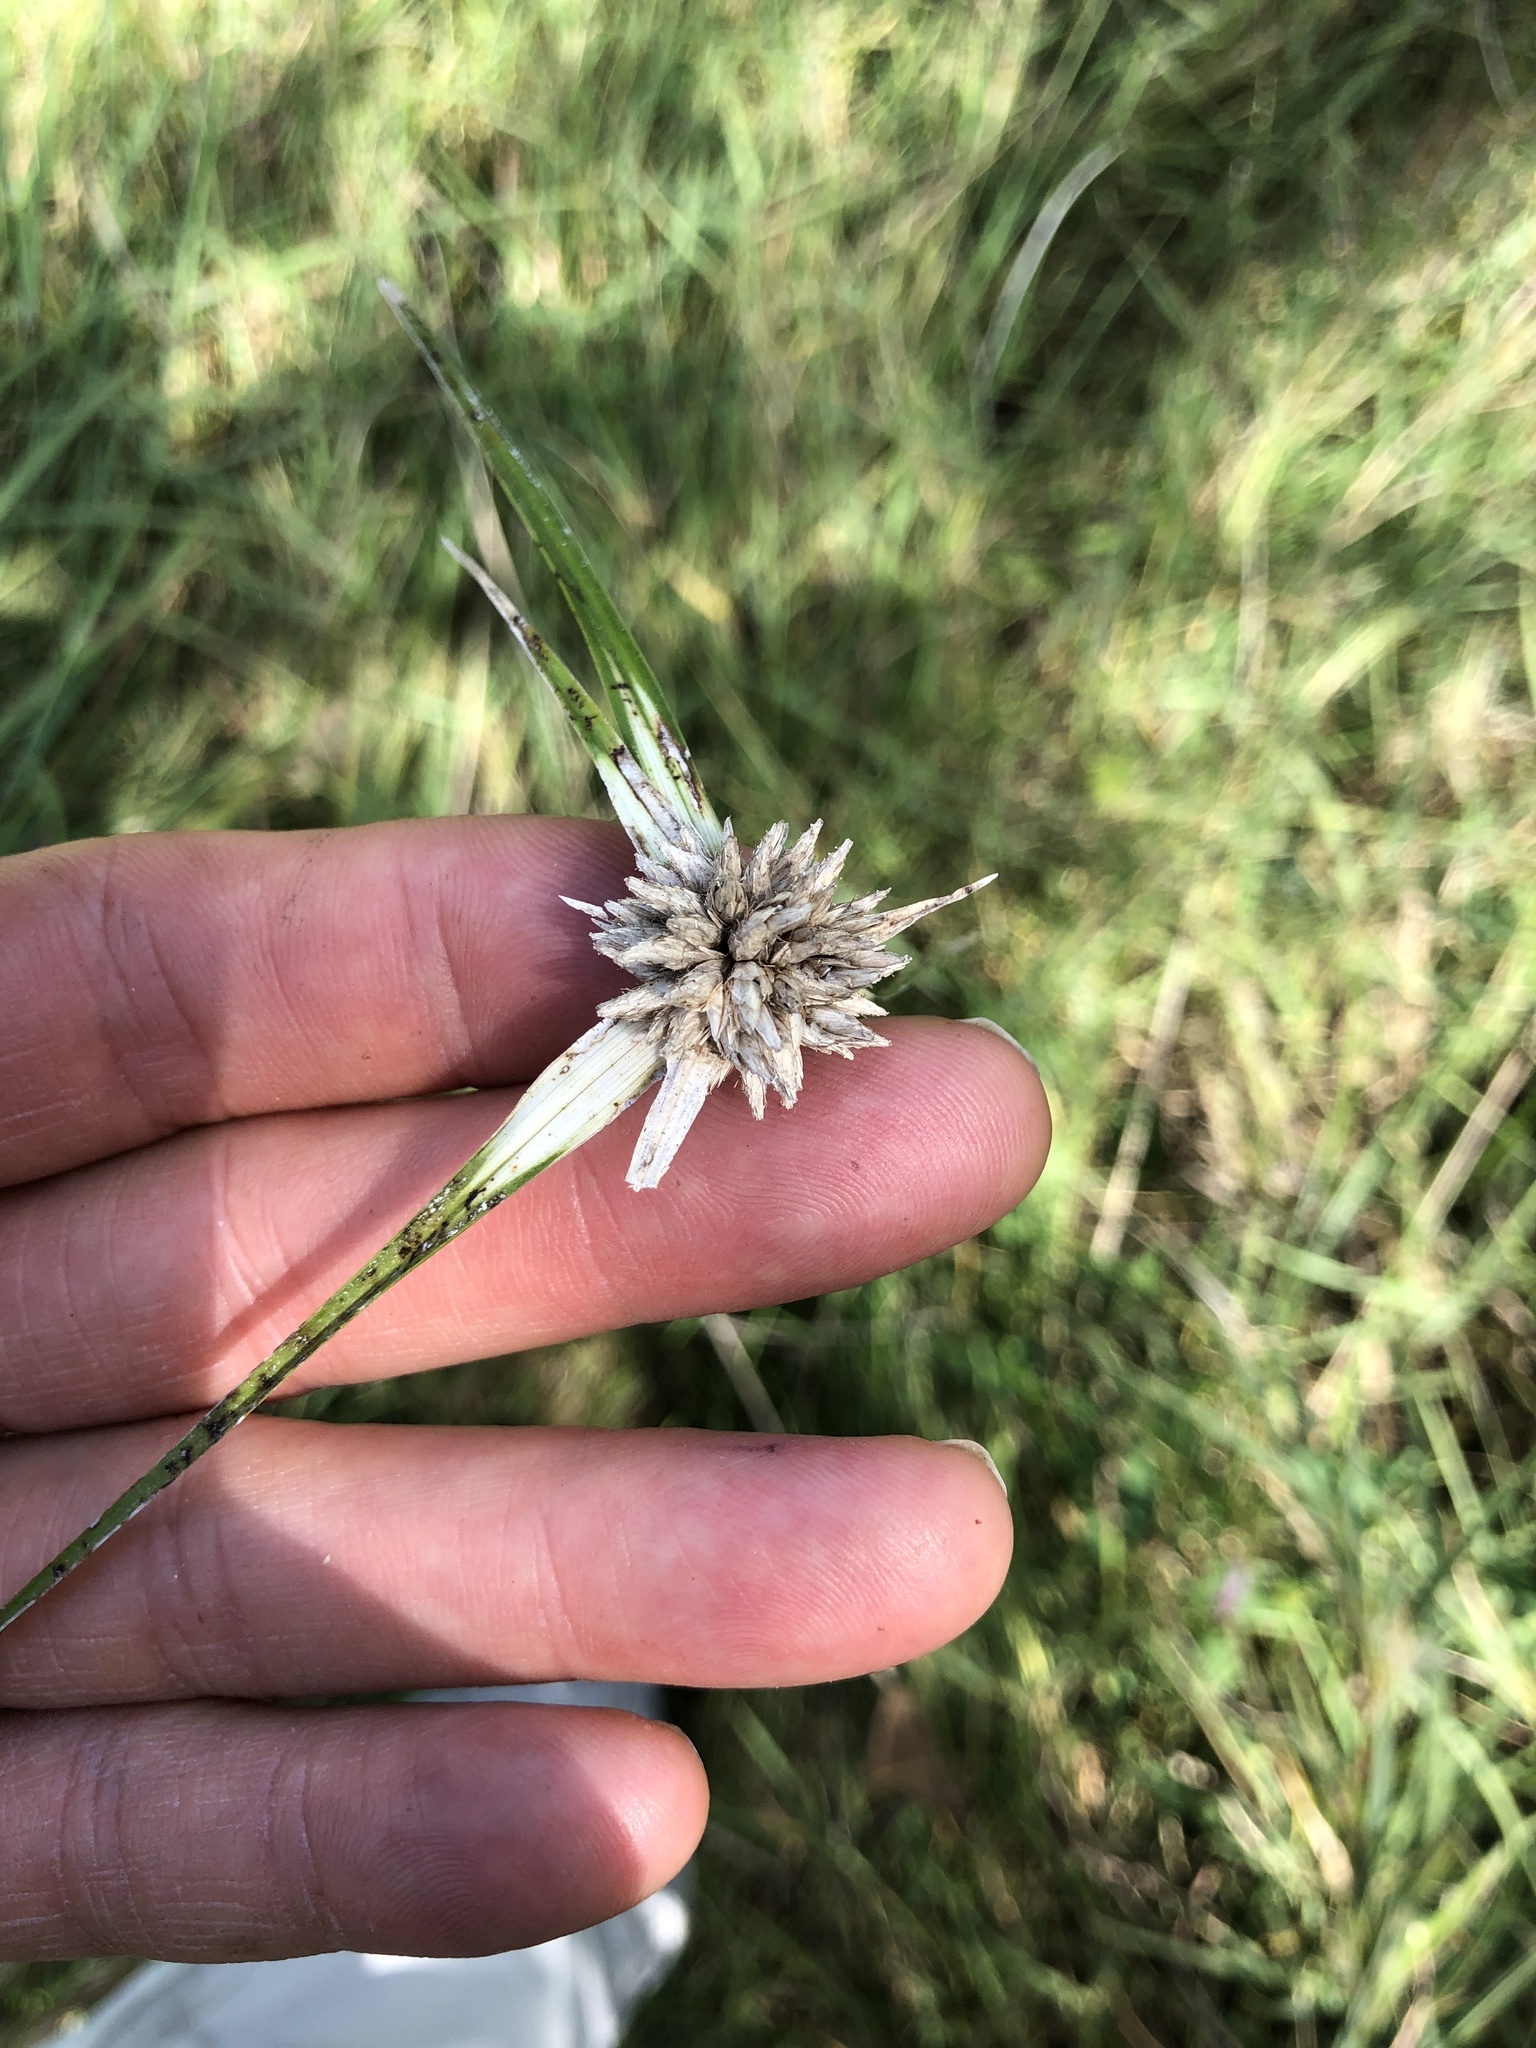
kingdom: Plantae
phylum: Tracheophyta
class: Liliopsida
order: Poales
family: Cyperaceae
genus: Rhynchospora
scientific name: Rhynchospora colorata
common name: Star sedge
